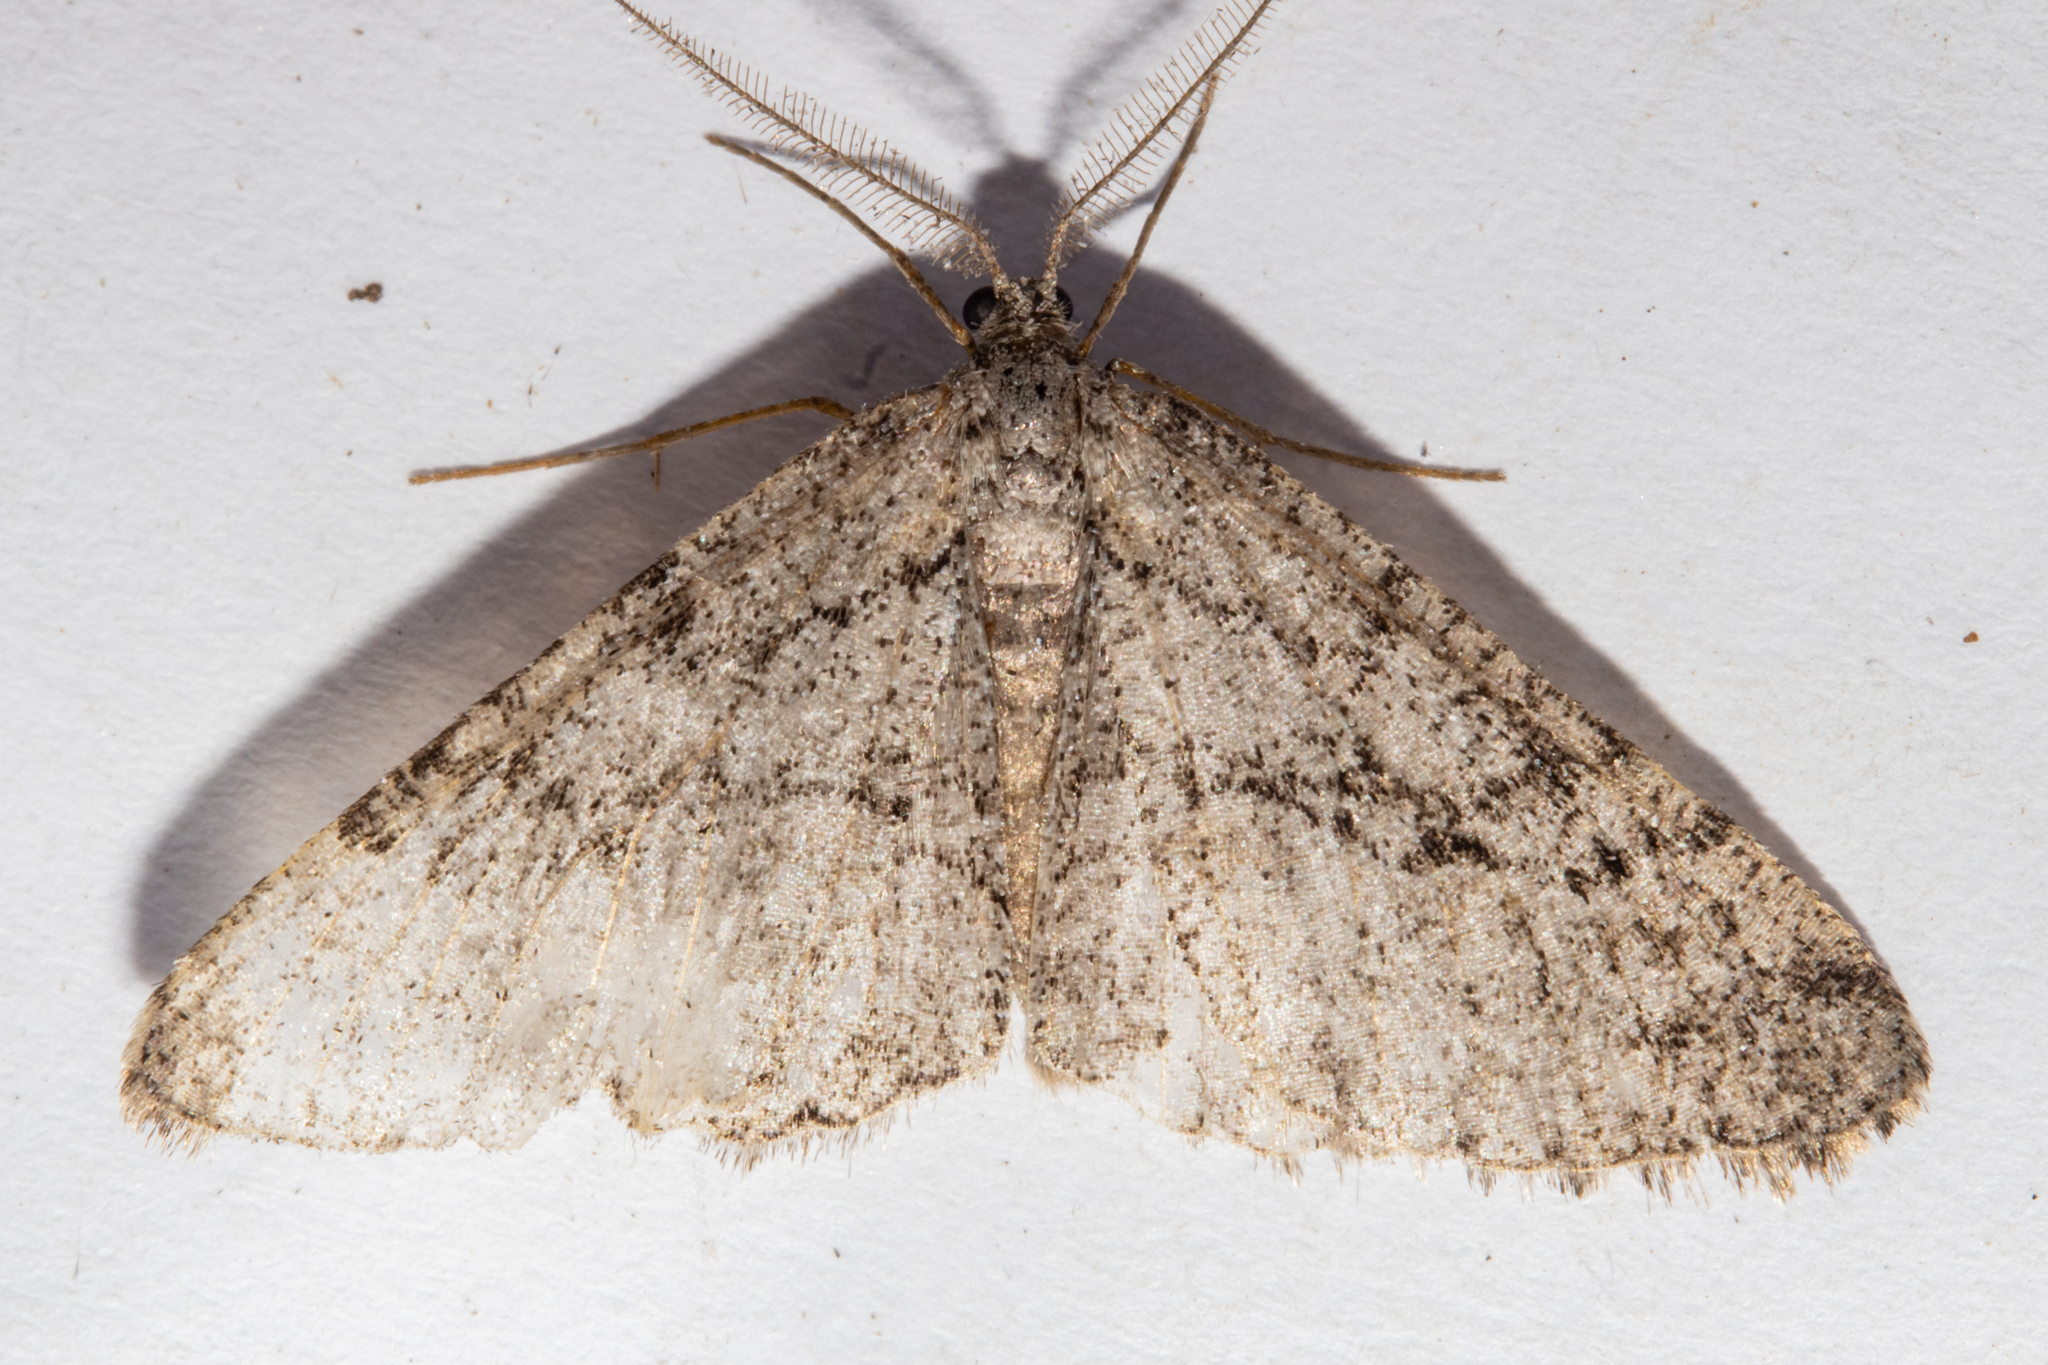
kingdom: Animalia
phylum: Arthropoda
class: Insecta
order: Lepidoptera
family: Geometridae
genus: Zermizinga
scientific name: Zermizinga indocilisaria
